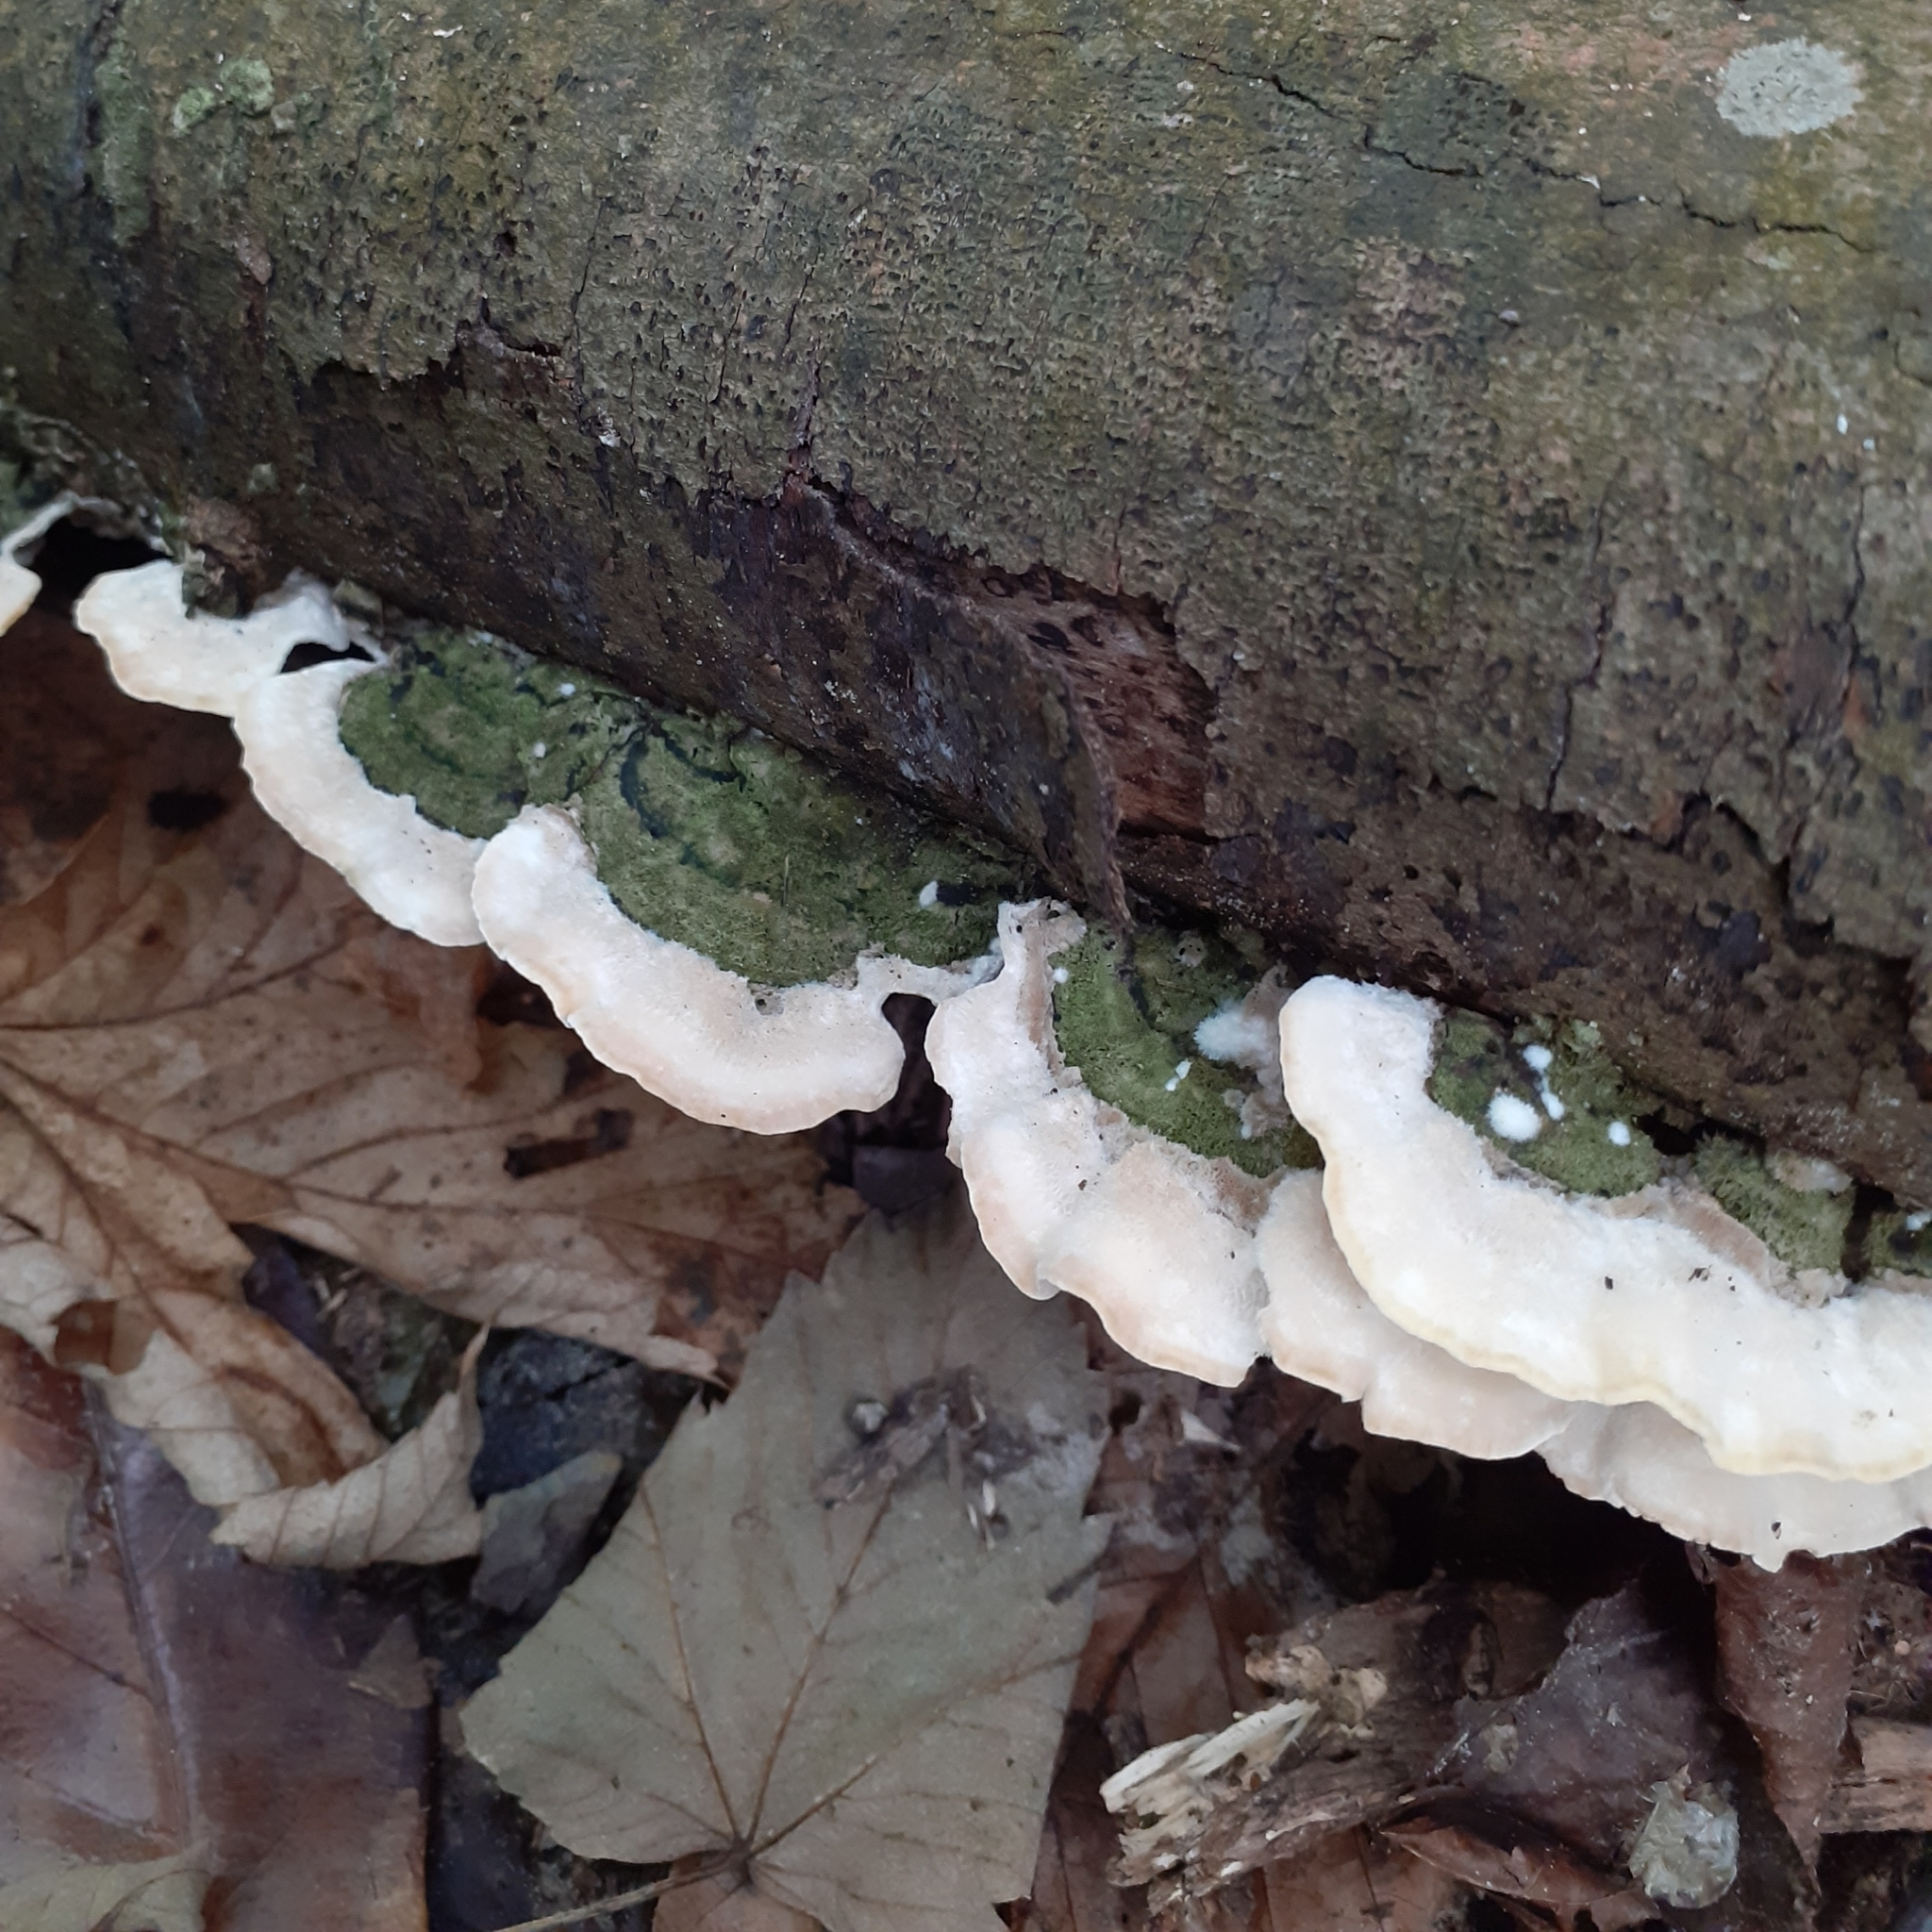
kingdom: Fungi
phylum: Basidiomycota
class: Agaricomycetes
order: Polyporales
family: Cerrenaceae
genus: Cerrena
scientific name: Cerrena unicolor
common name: Mossy maze polypore
